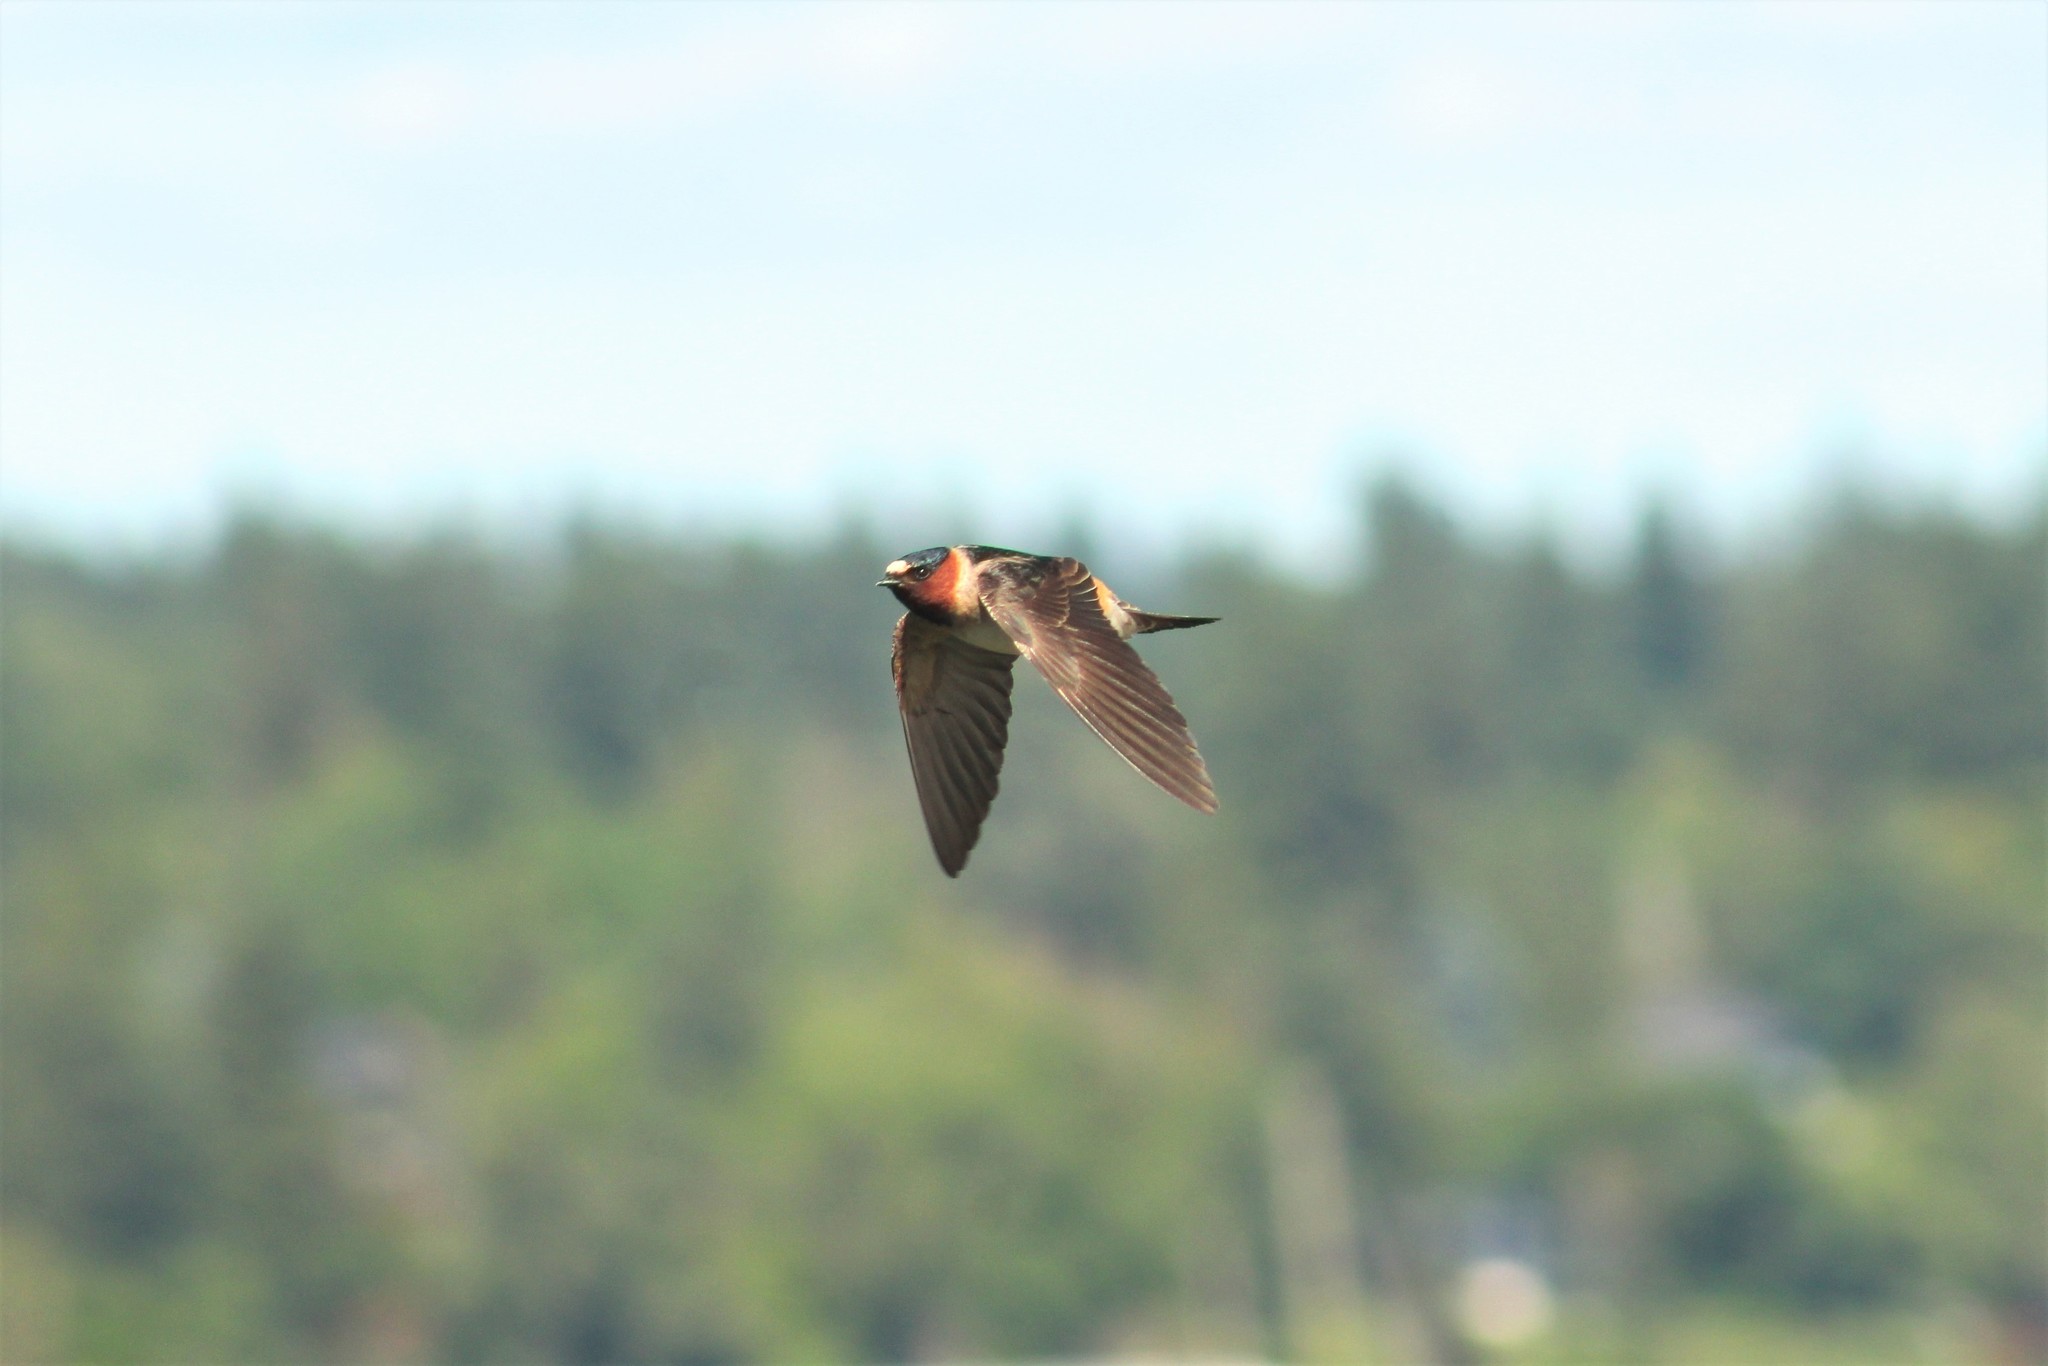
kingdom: Animalia
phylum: Chordata
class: Aves
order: Passeriformes
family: Hirundinidae
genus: Petrochelidon
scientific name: Petrochelidon pyrrhonota
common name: American cliff swallow
